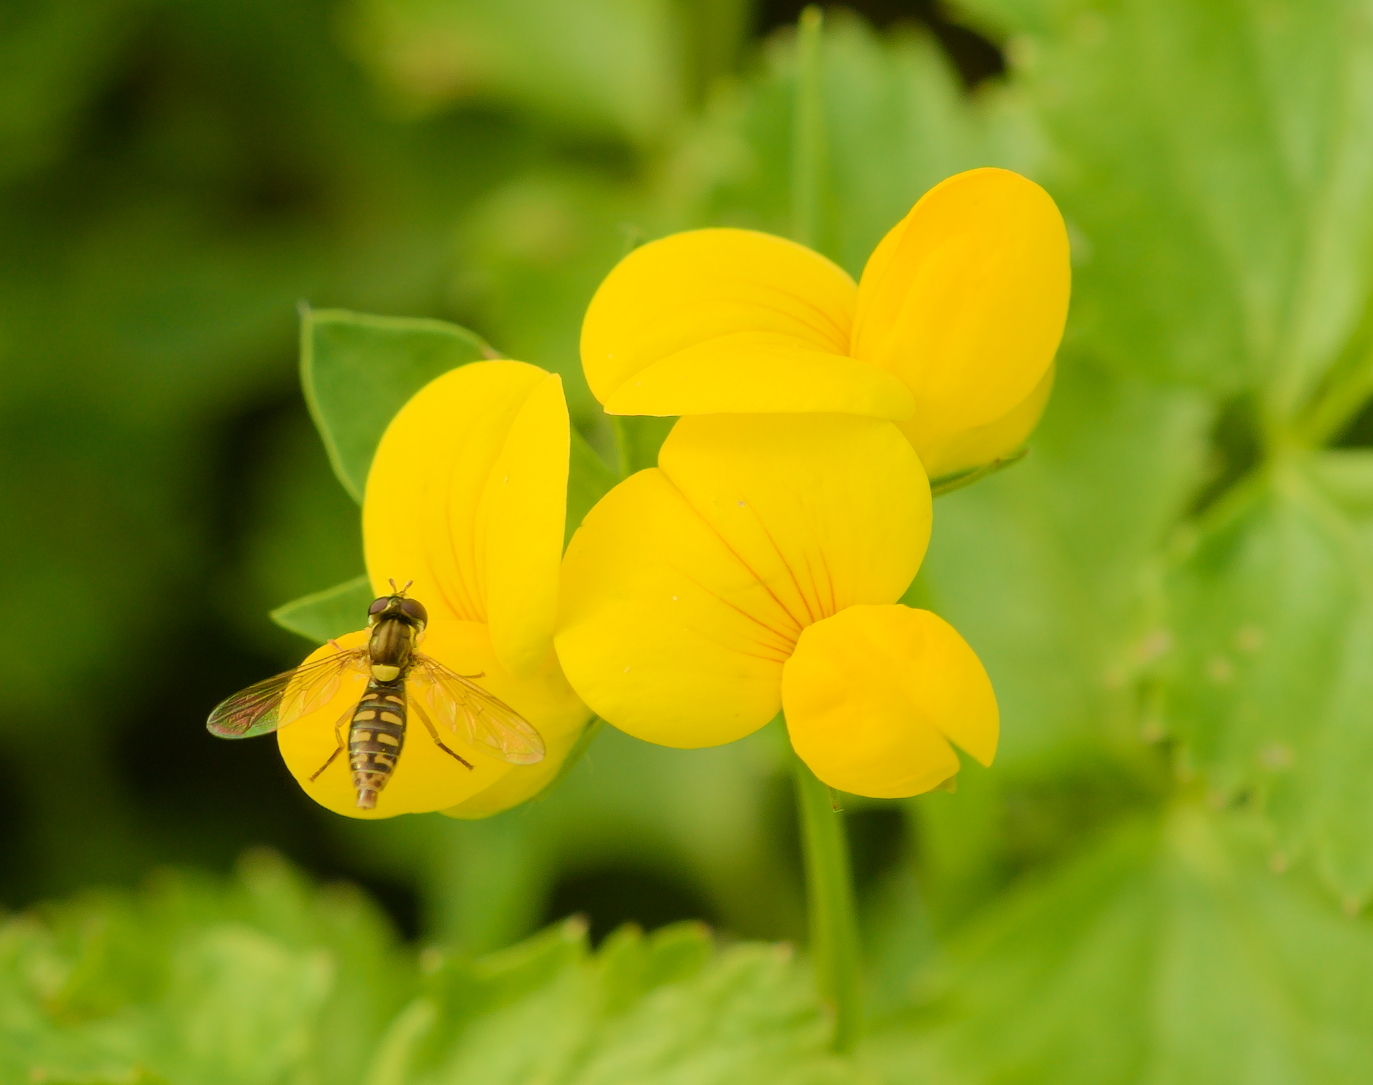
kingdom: Plantae
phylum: Tracheophyta
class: Magnoliopsida
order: Fabales
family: Fabaceae
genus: Lotus
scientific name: Lotus corniculatus
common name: Common bird's-foot-trefoil
